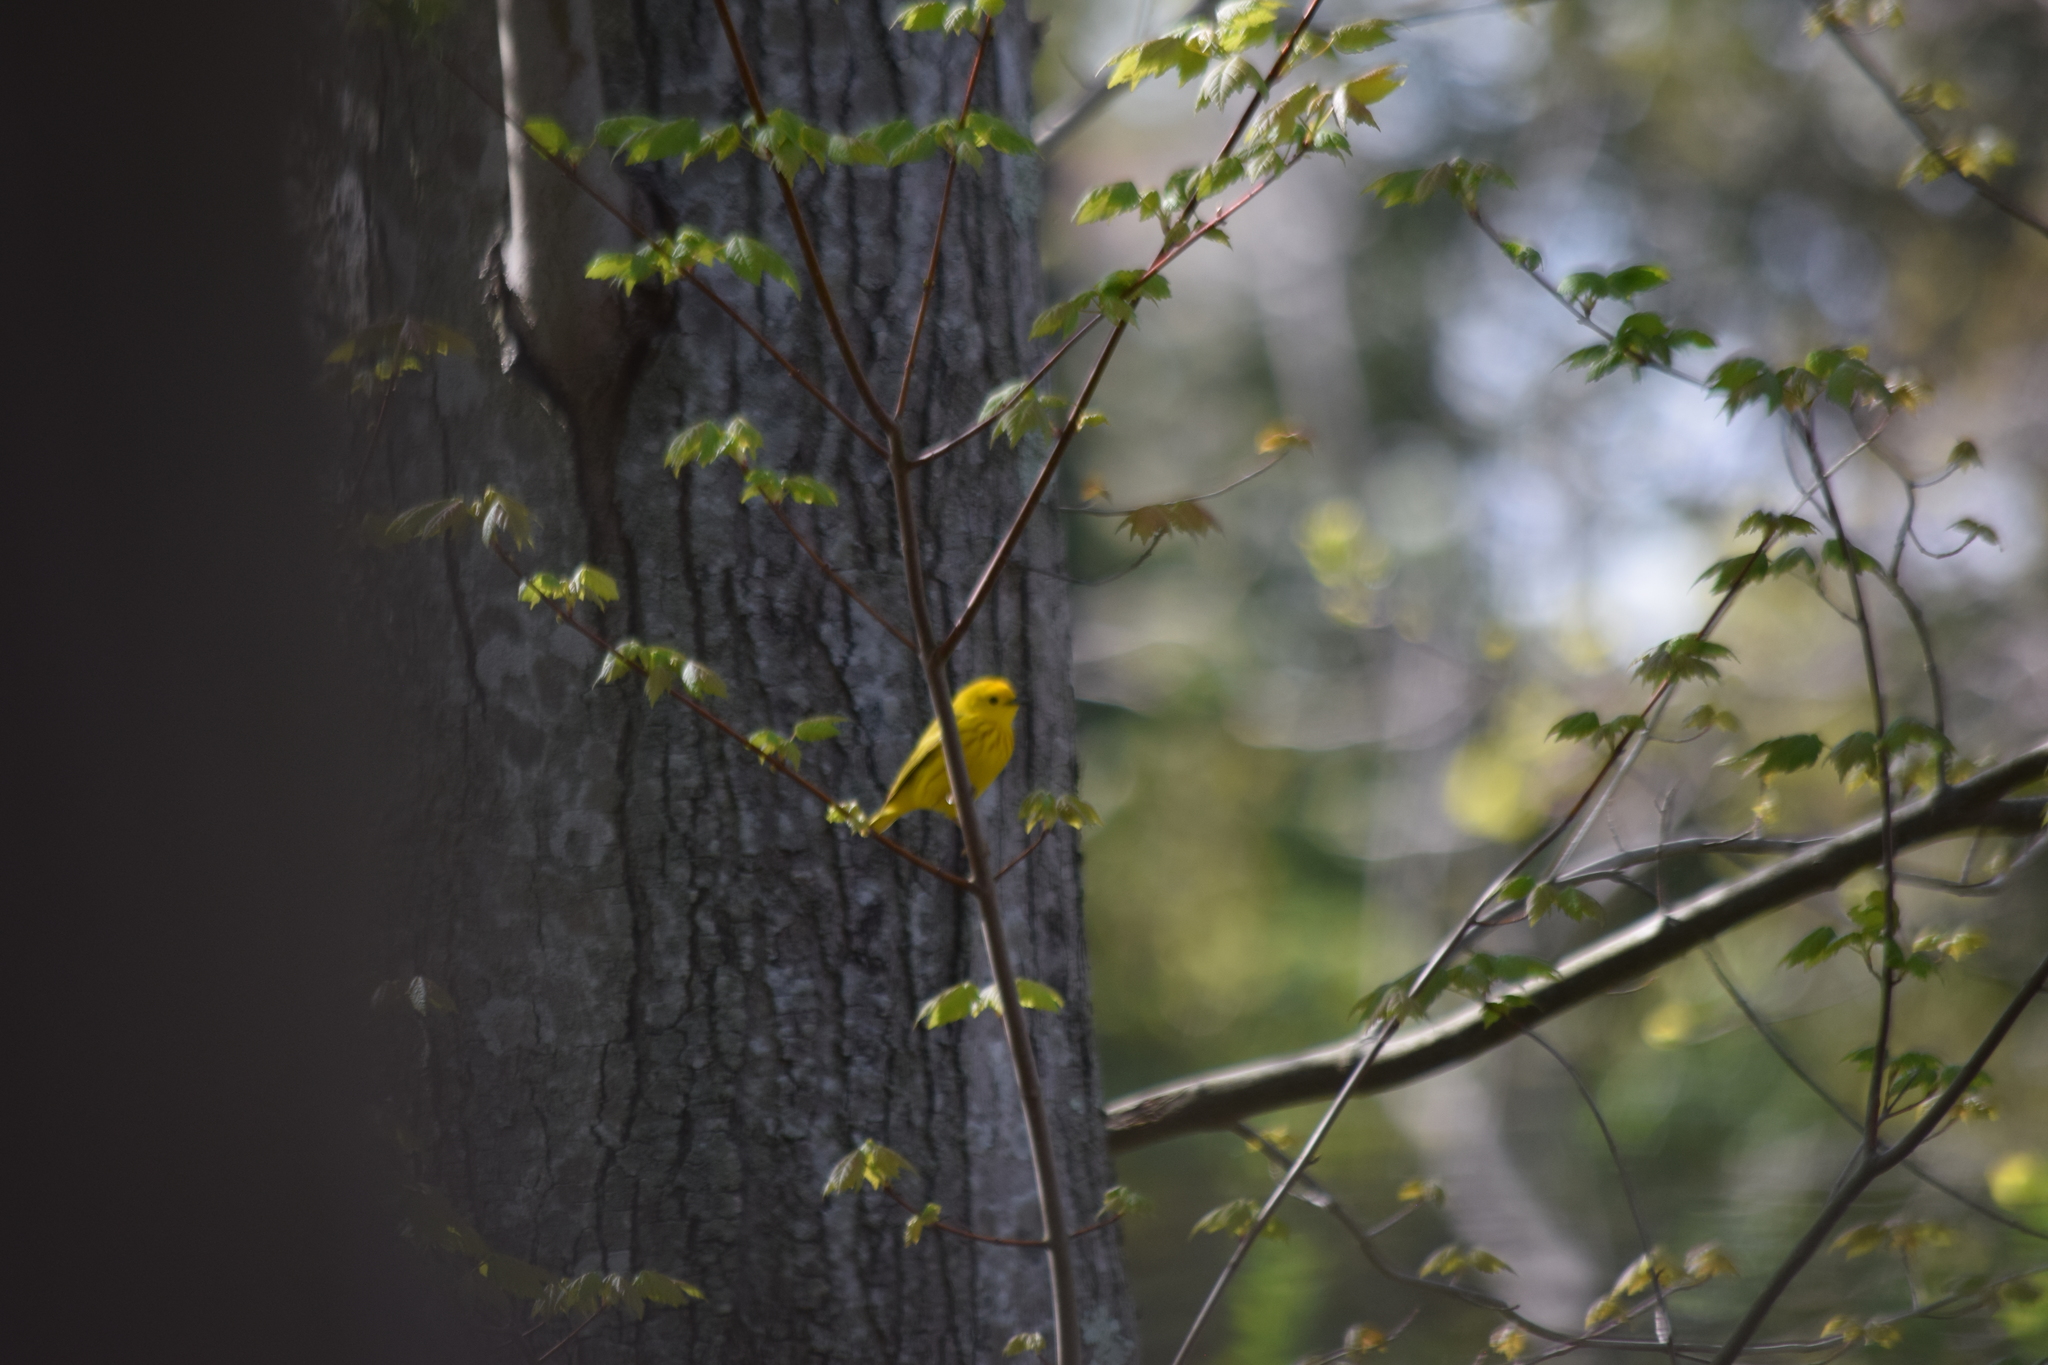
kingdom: Animalia
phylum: Chordata
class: Aves
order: Passeriformes
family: Parulidae
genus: Setophaga
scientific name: Setophaga petechia
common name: Yellow warbler
